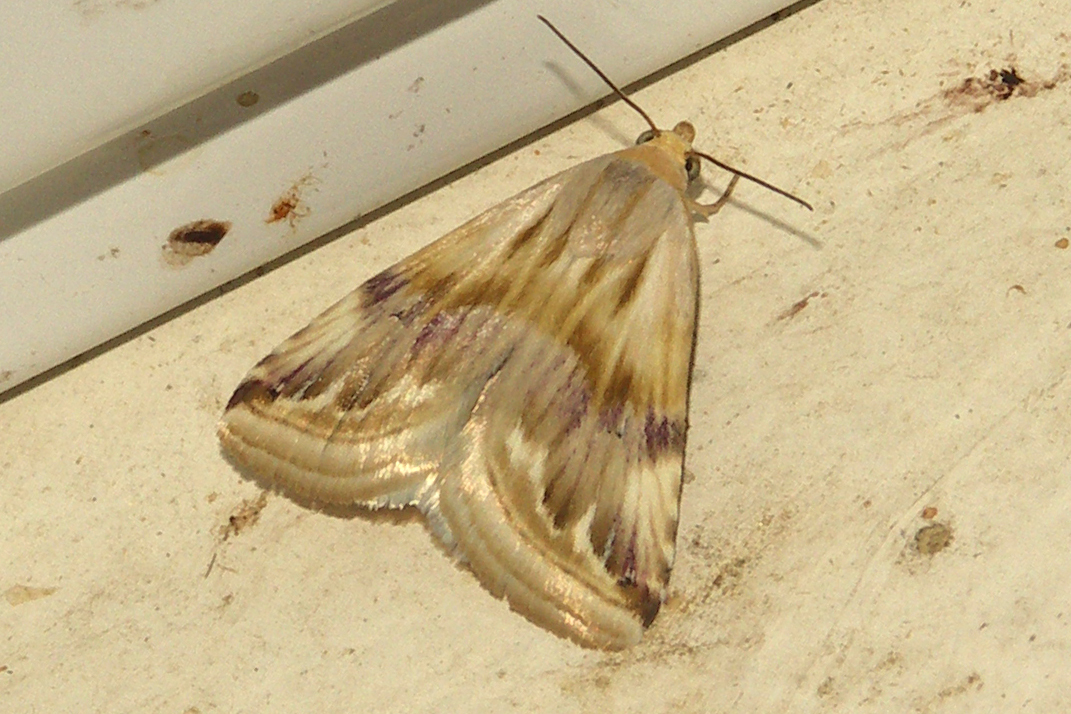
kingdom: Animalia
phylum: Arthropoda
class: Insecta
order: Lepidoptera
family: Noctuidae
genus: Eublemma
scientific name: Eublemma ostrina
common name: Purple marbled
